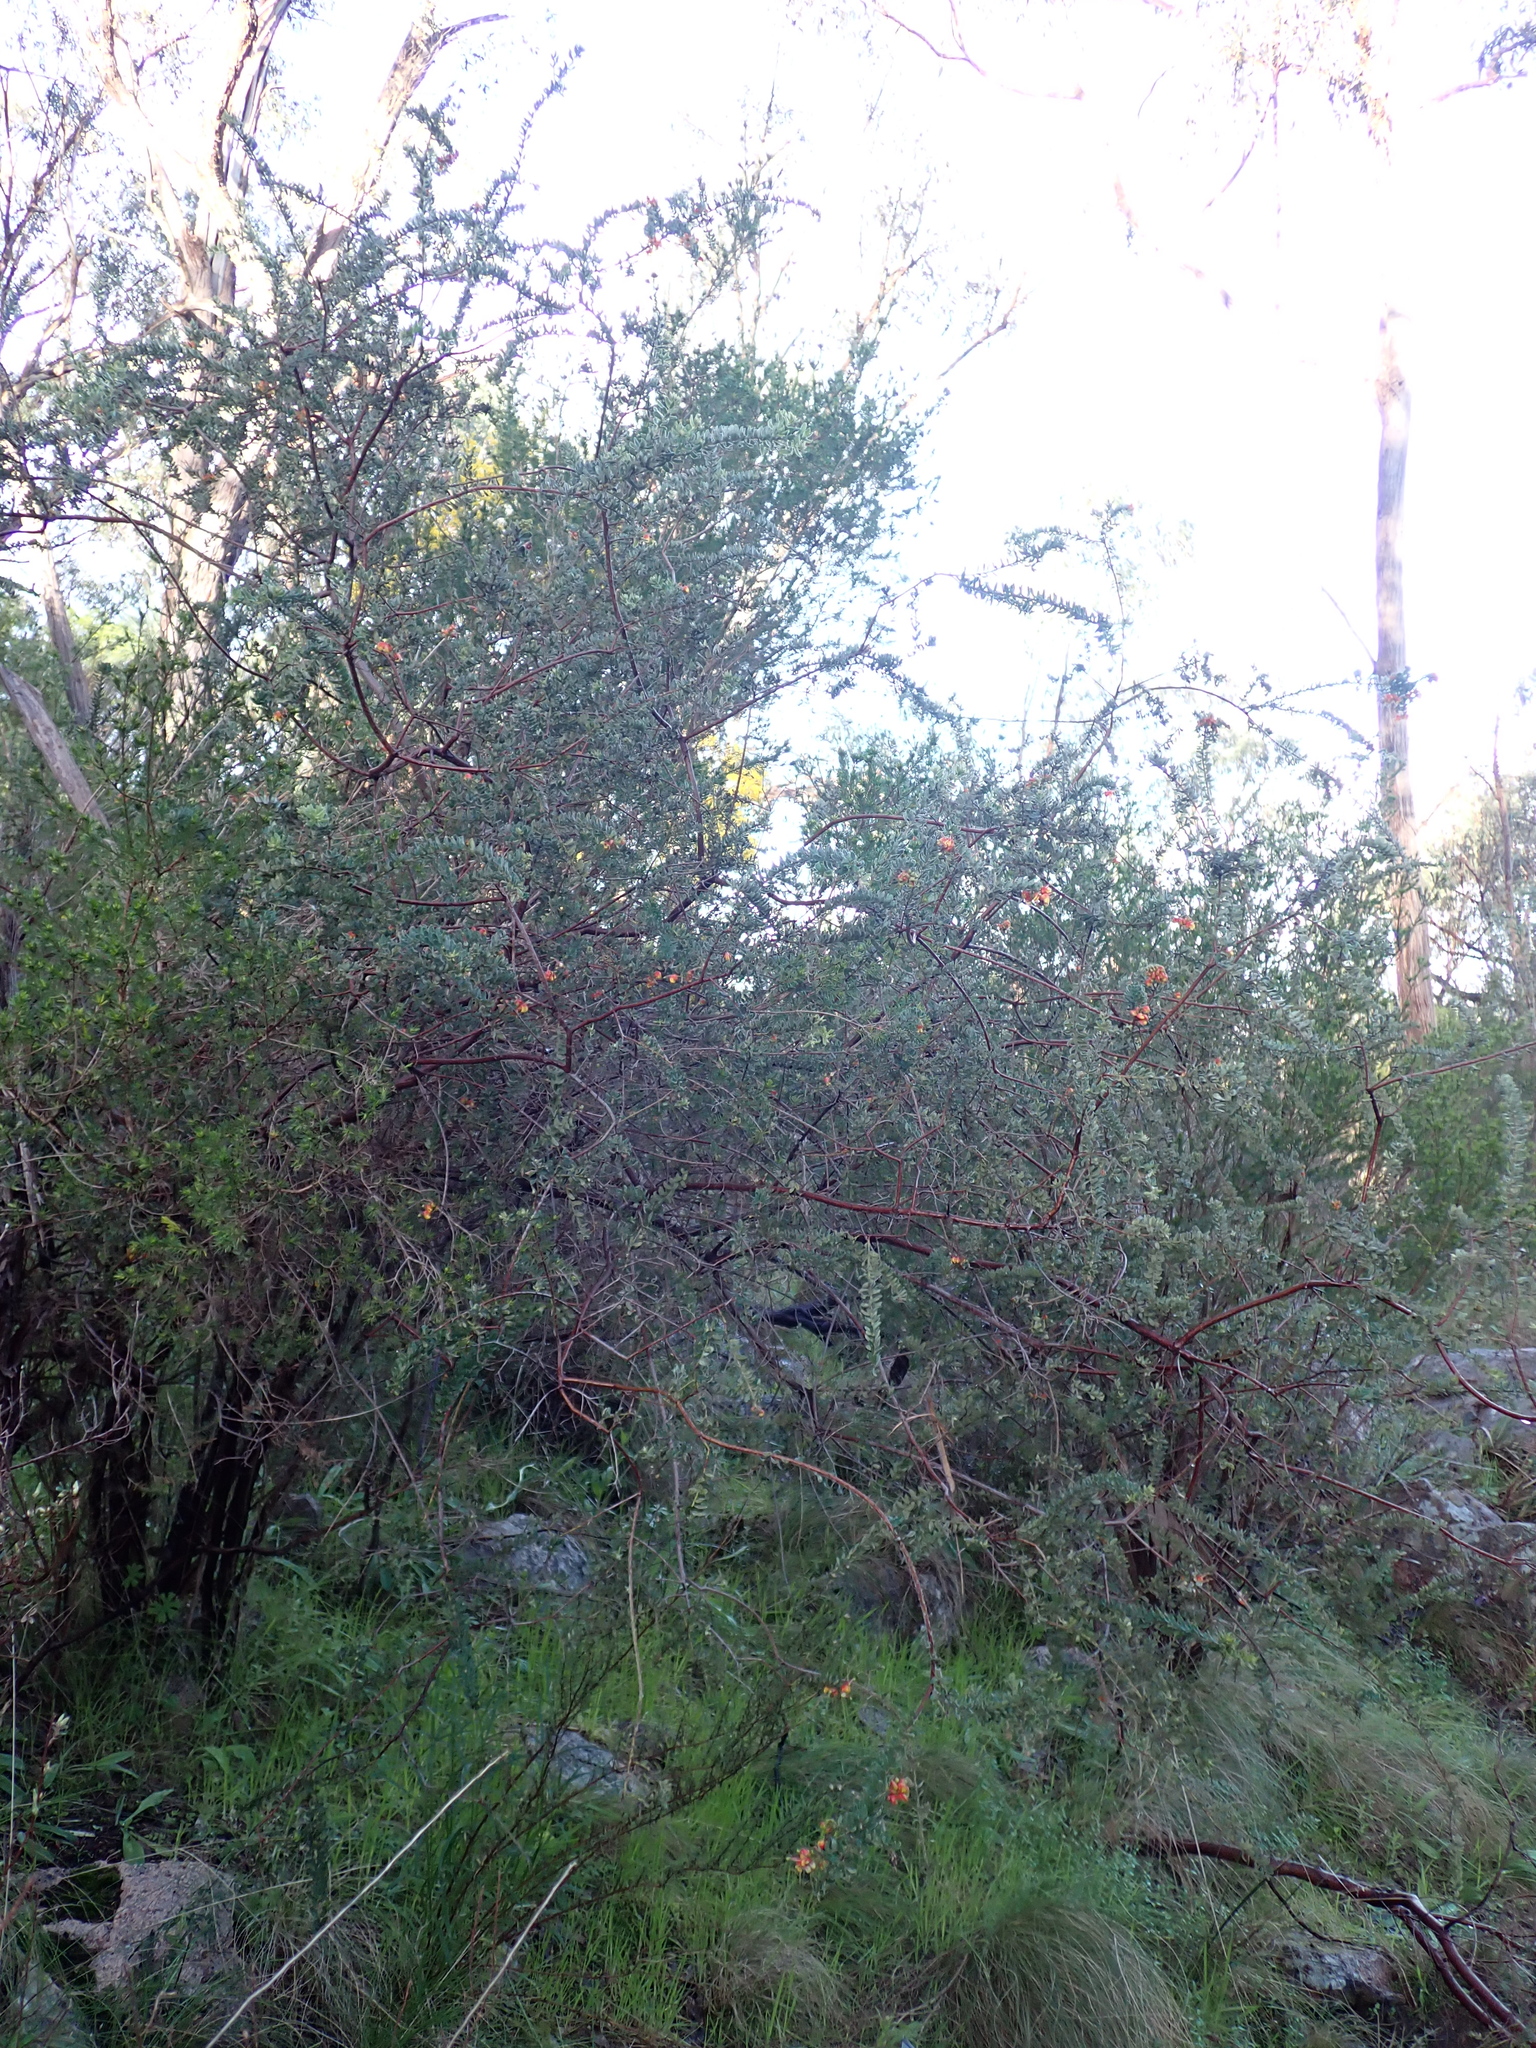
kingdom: Plantae
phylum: Tracheophyta
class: Magnoliopsida
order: Proteales
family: Proteaceae
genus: Grevillea
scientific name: Grevillea alpina
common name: Catclaws grevillea
